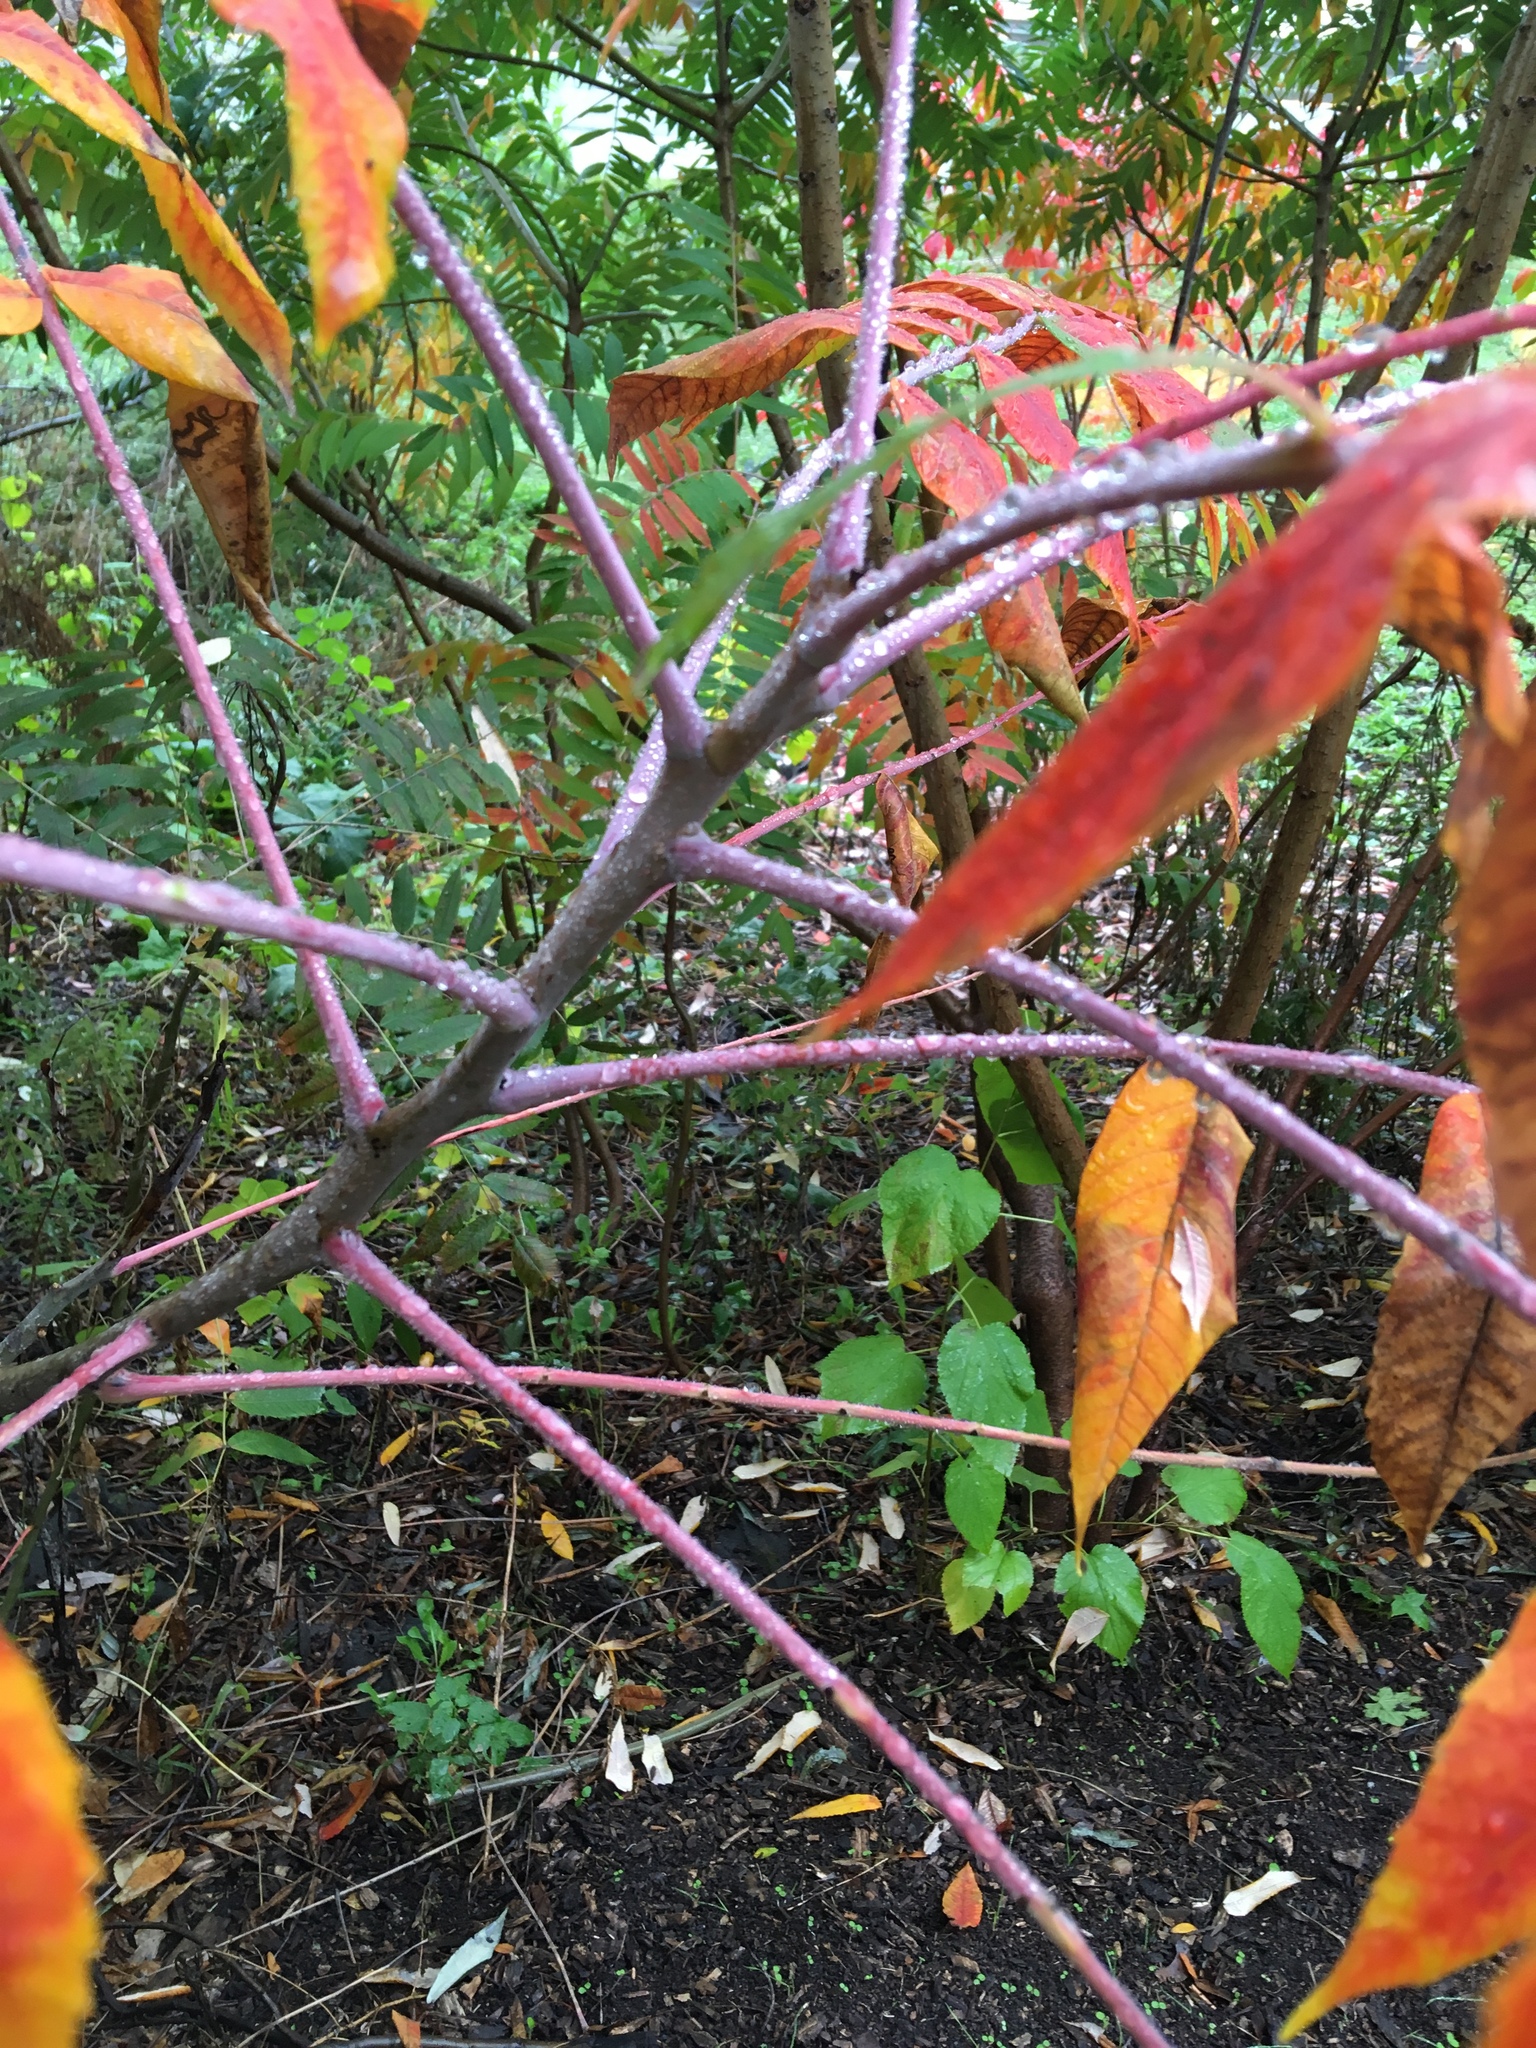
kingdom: Plantae
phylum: Tracheophyta
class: Magnoliopsida
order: Sapindales
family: Anacardiaceae
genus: Rhus
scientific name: Rhus glabra
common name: Scarlet sumac
